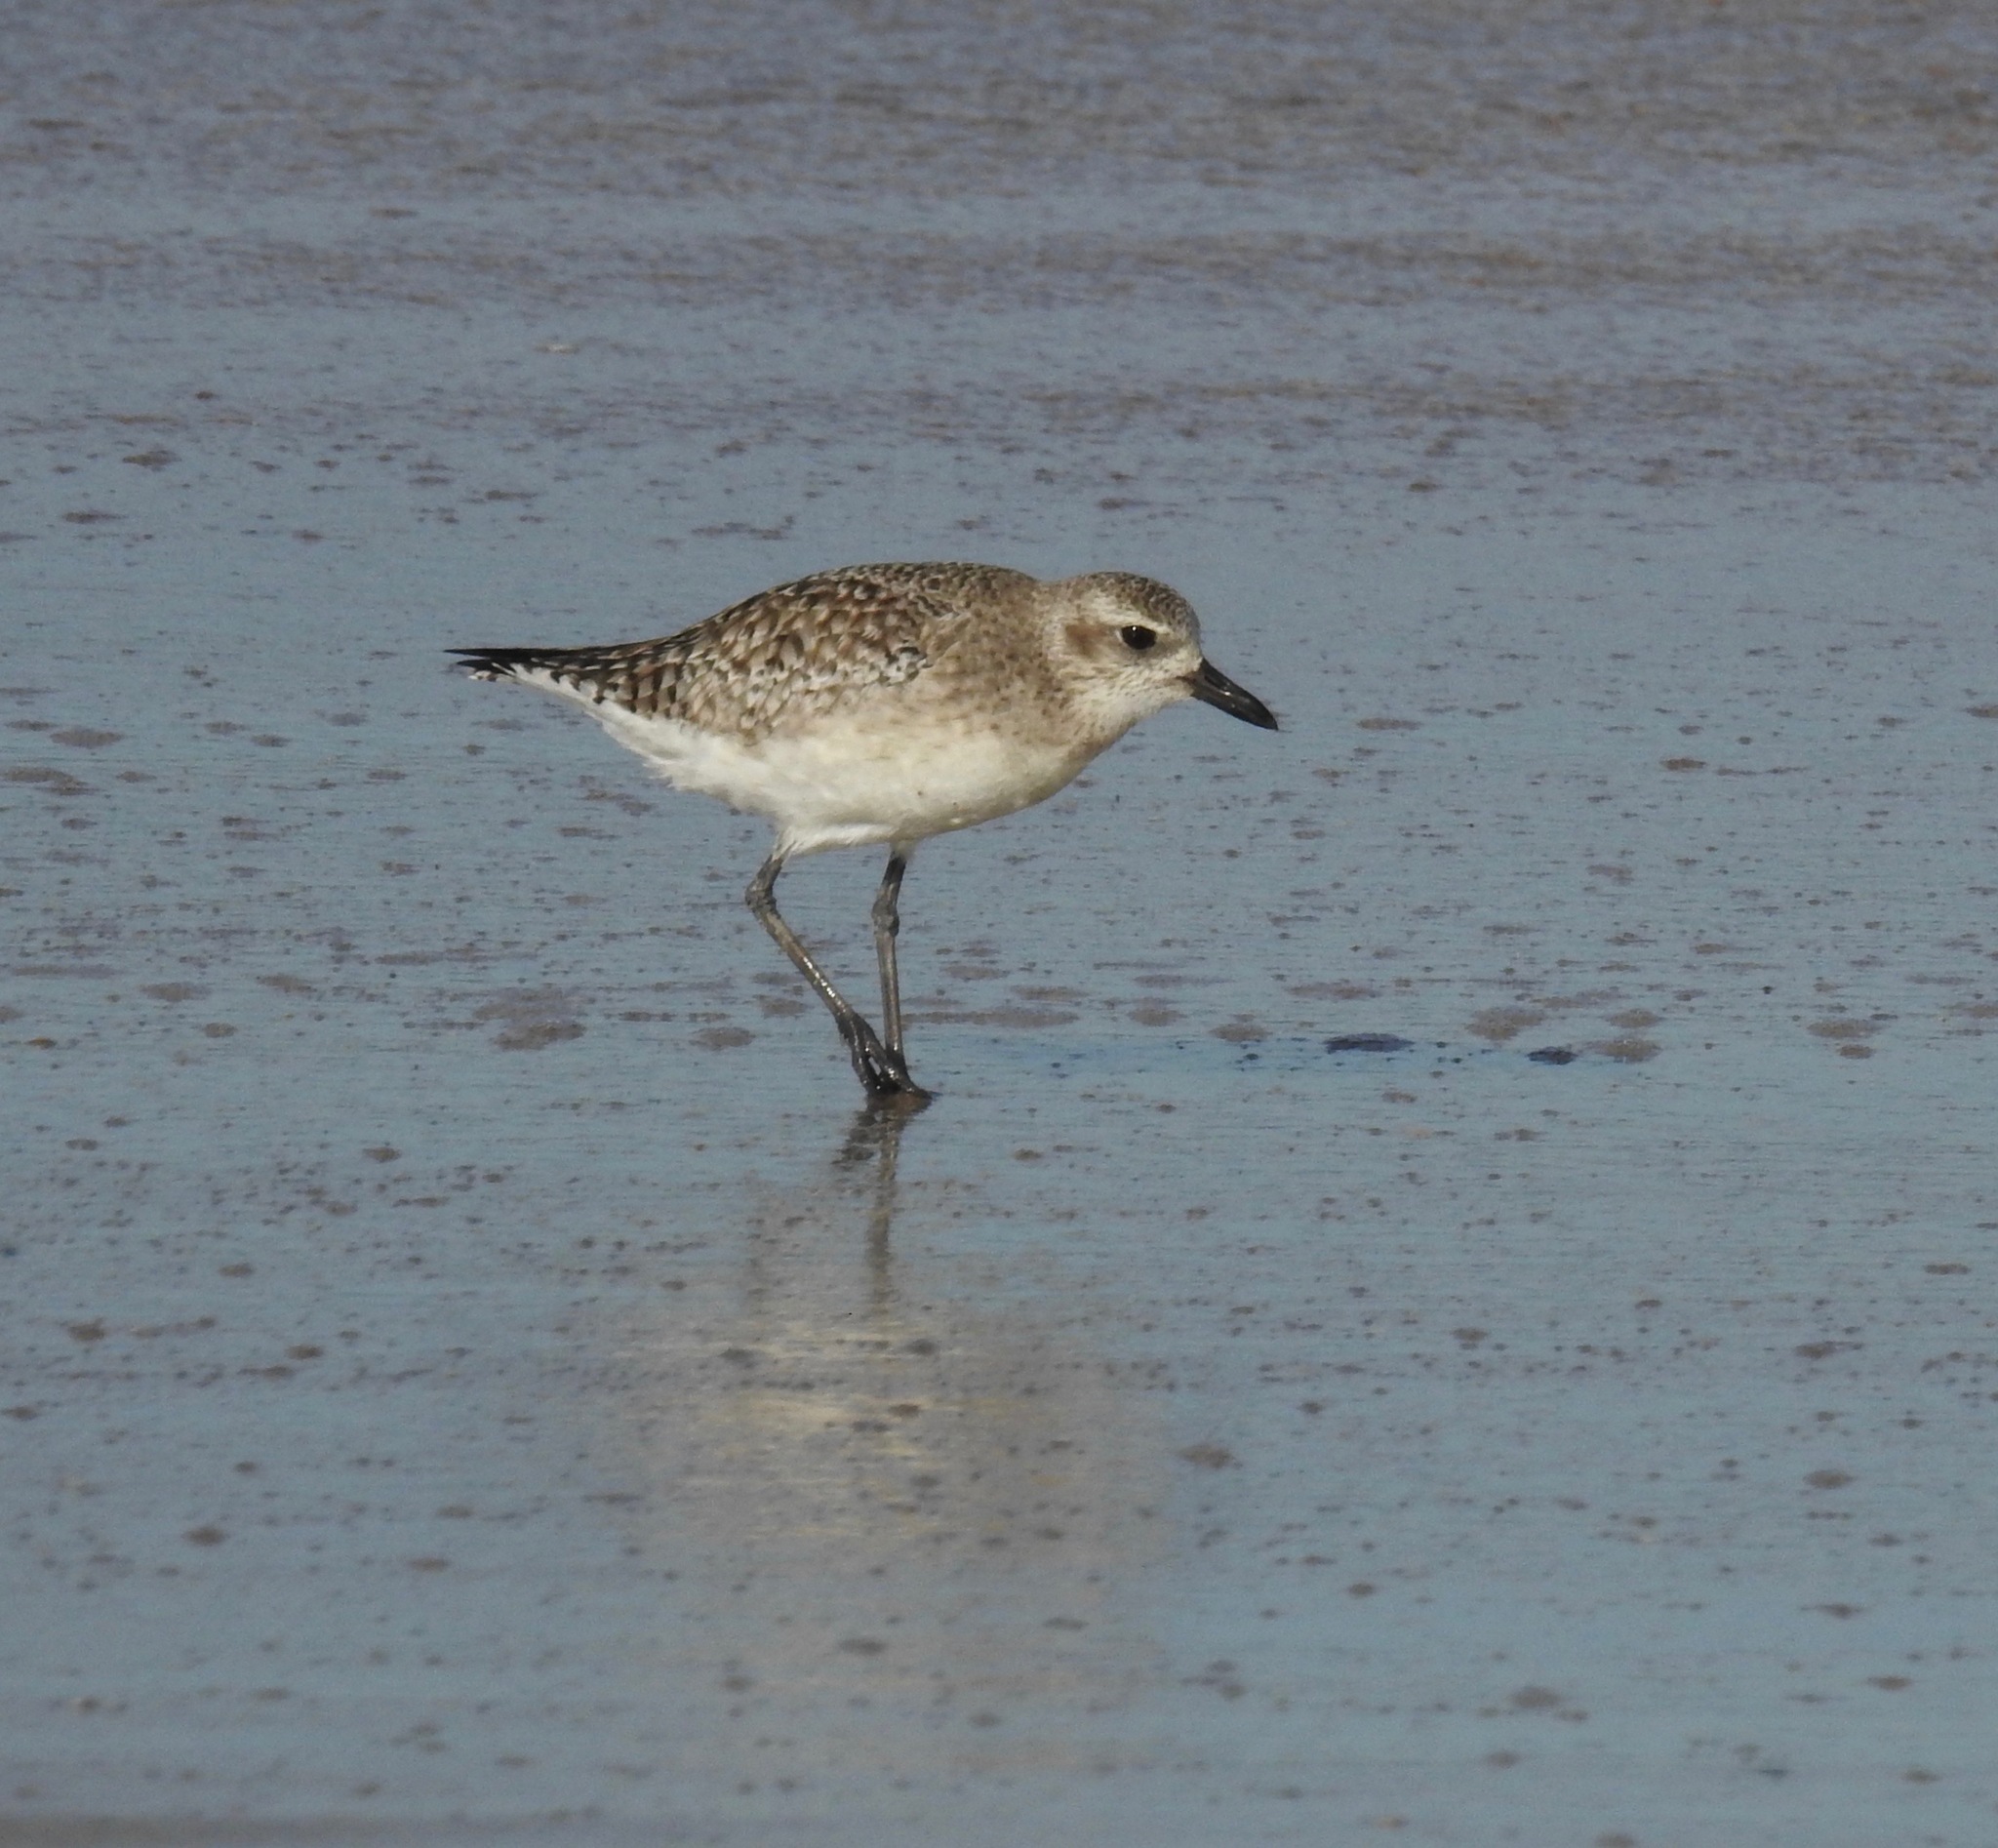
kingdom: Animalia
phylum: Chordata
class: Aves
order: Charadriiformes
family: Charadriidae
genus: Pluvialis
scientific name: Pluvialis squatarola
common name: Grey plover
